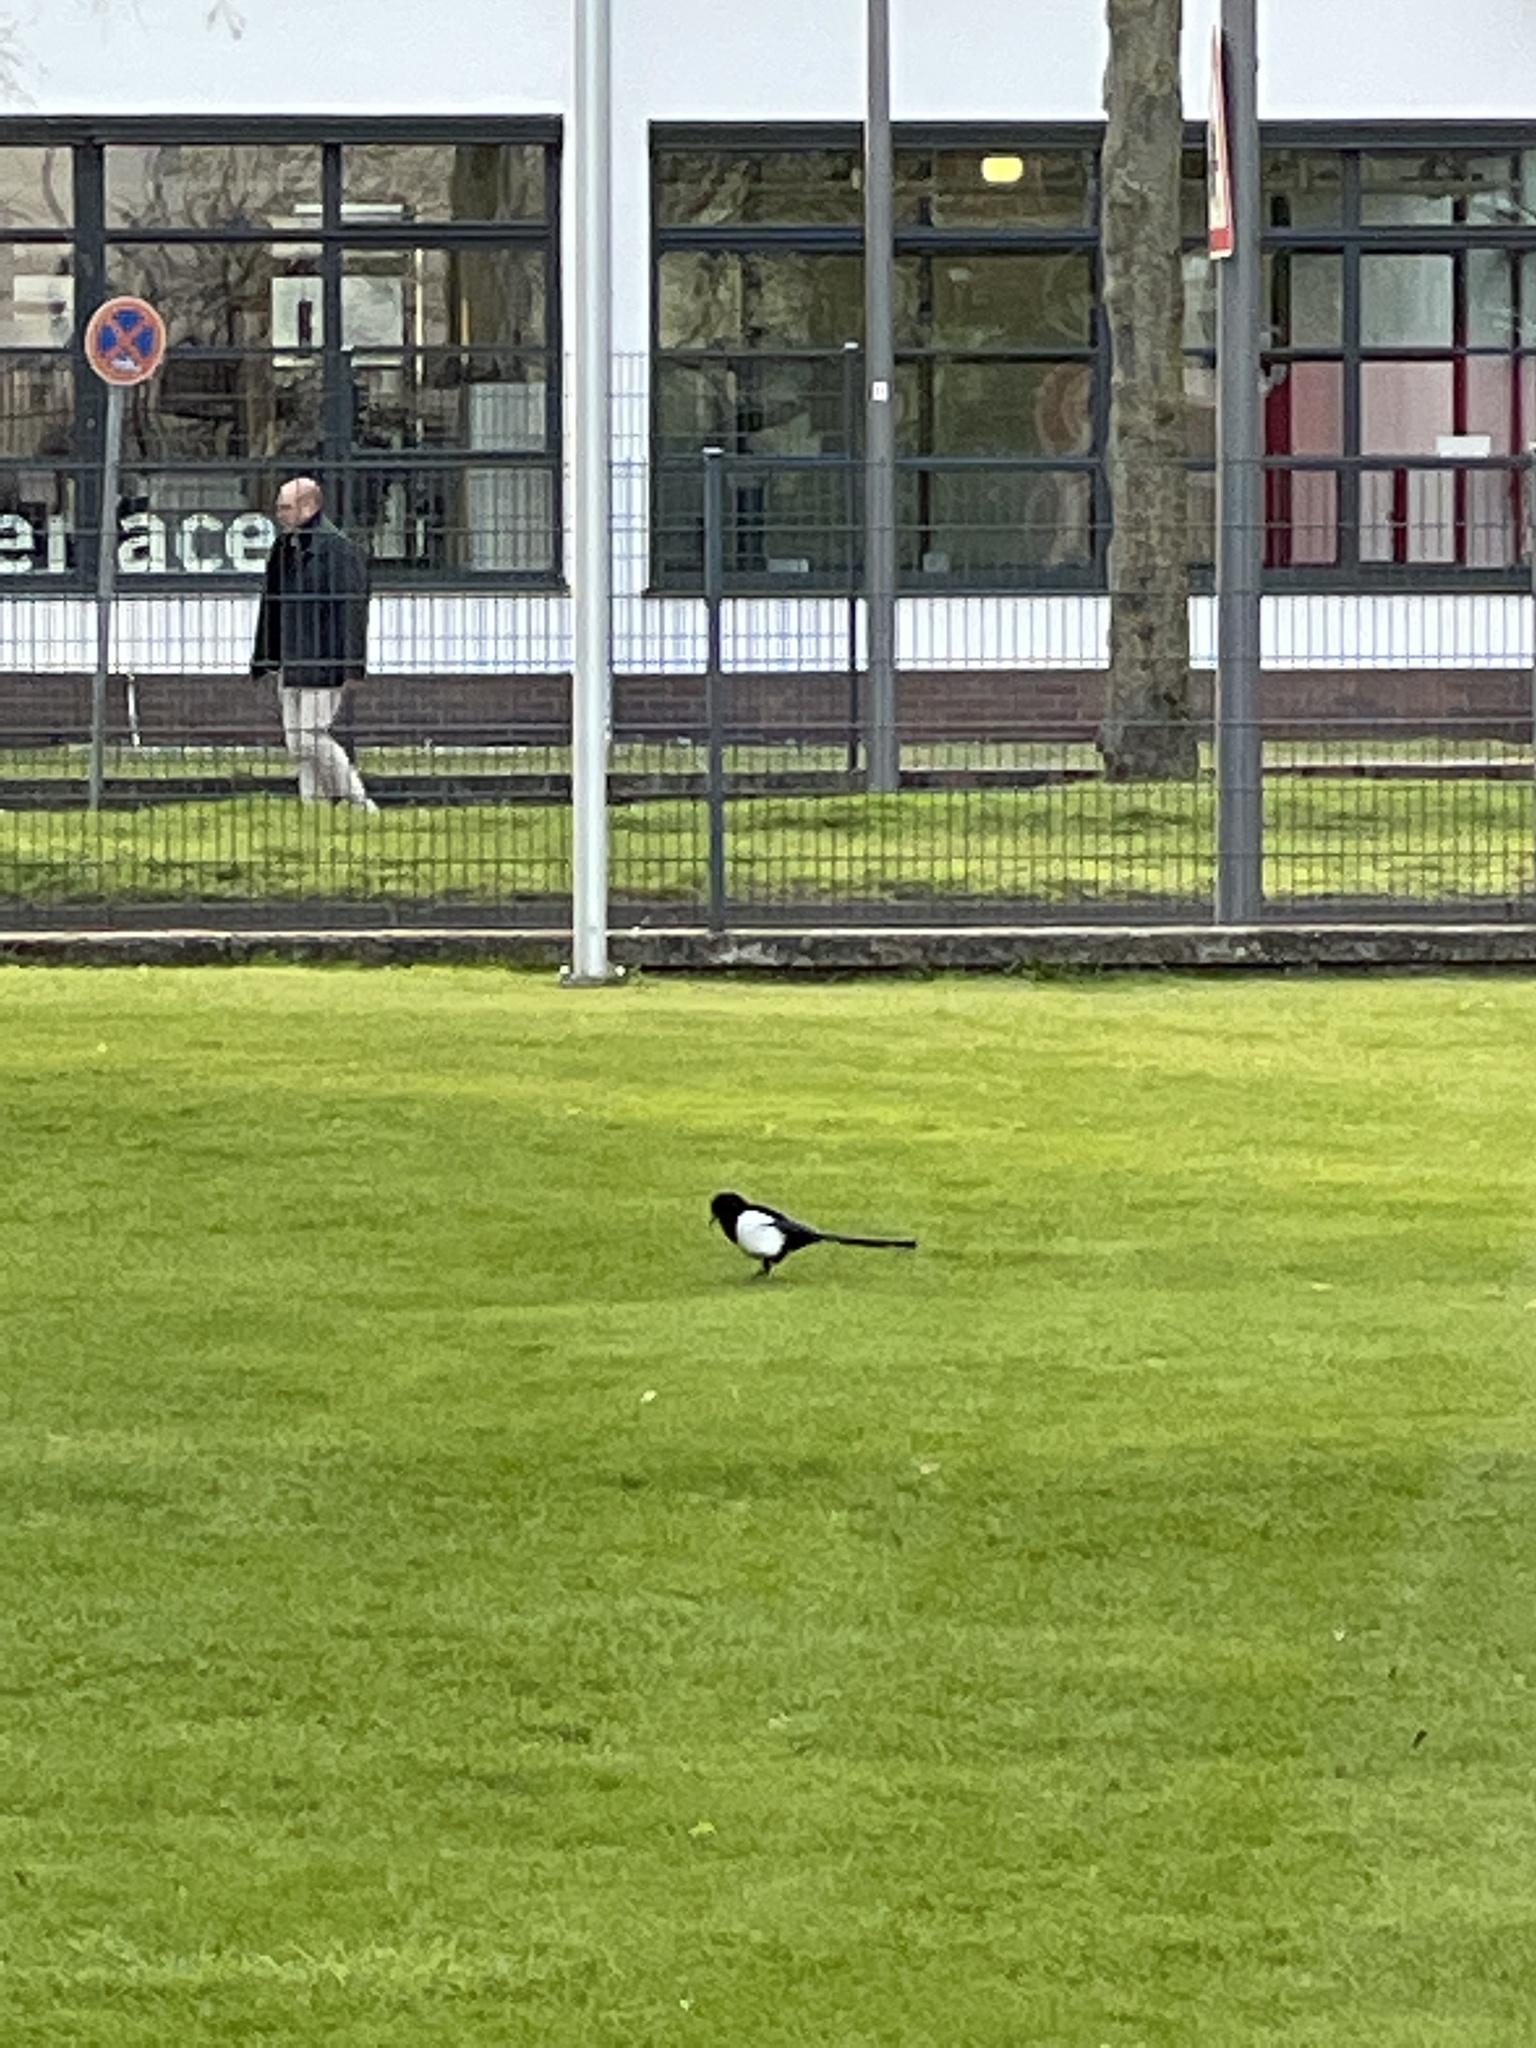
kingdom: Animalia
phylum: Chordata
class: Aves
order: Passeriformes
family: Corvidae
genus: Pica
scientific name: Pica pica
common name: Eurasian magpie
